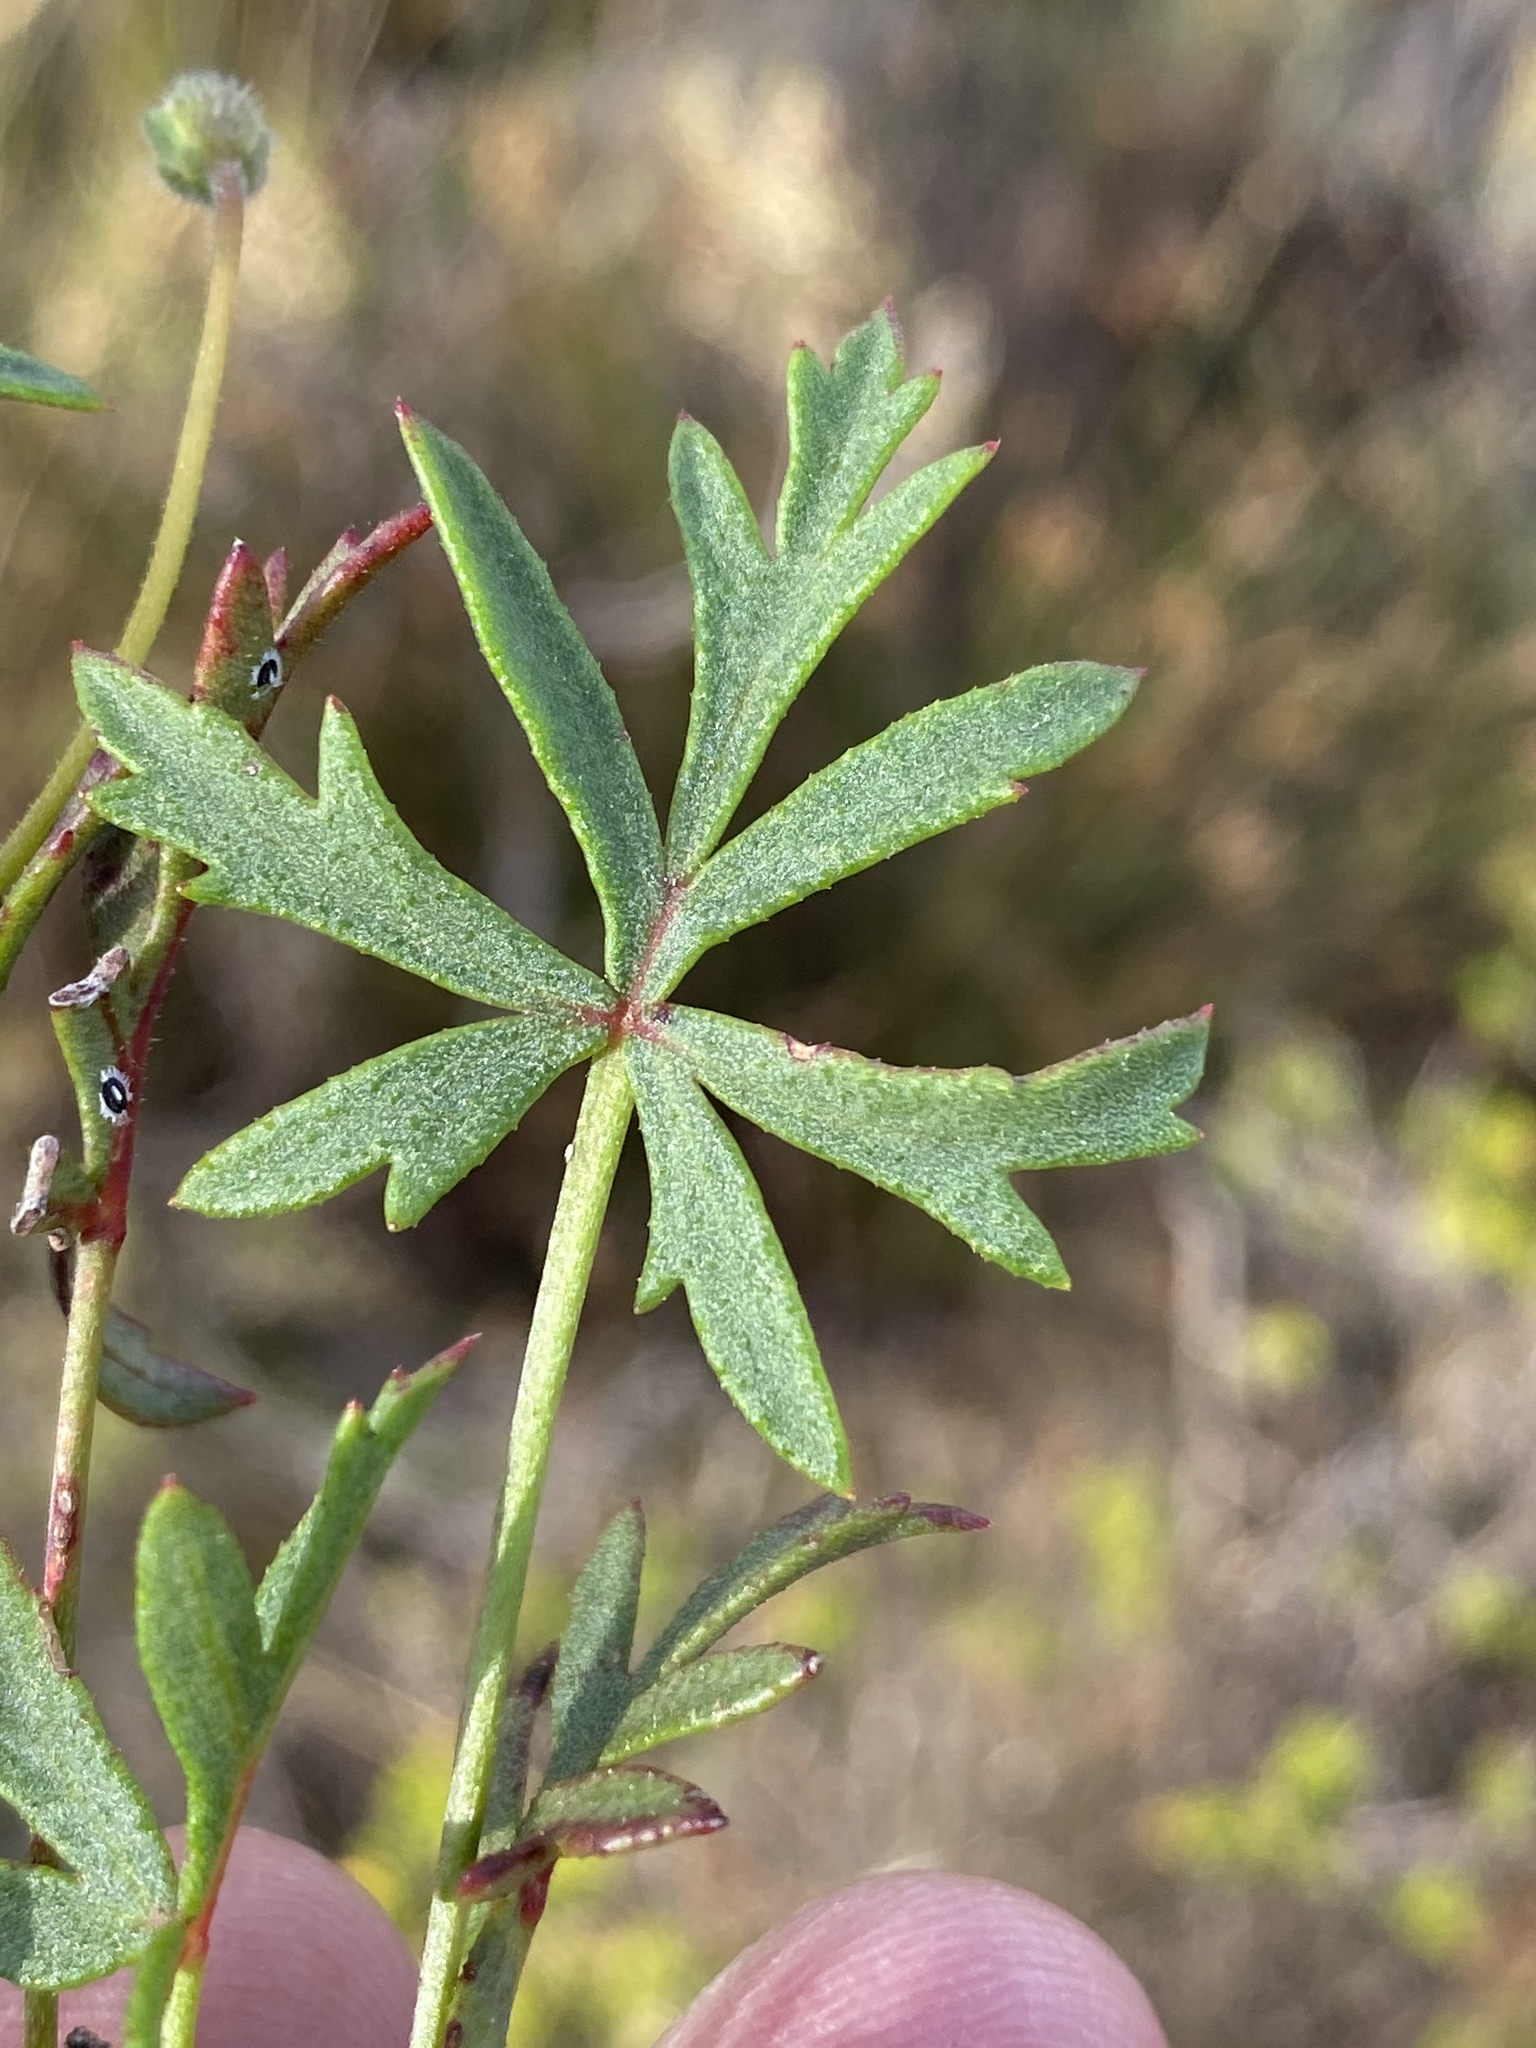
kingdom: Plantae
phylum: Tracheophyta
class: Magnoliopsida
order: Geraniales
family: Geraniaceae
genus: Pelargonium
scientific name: Pelargonium incarnatum
